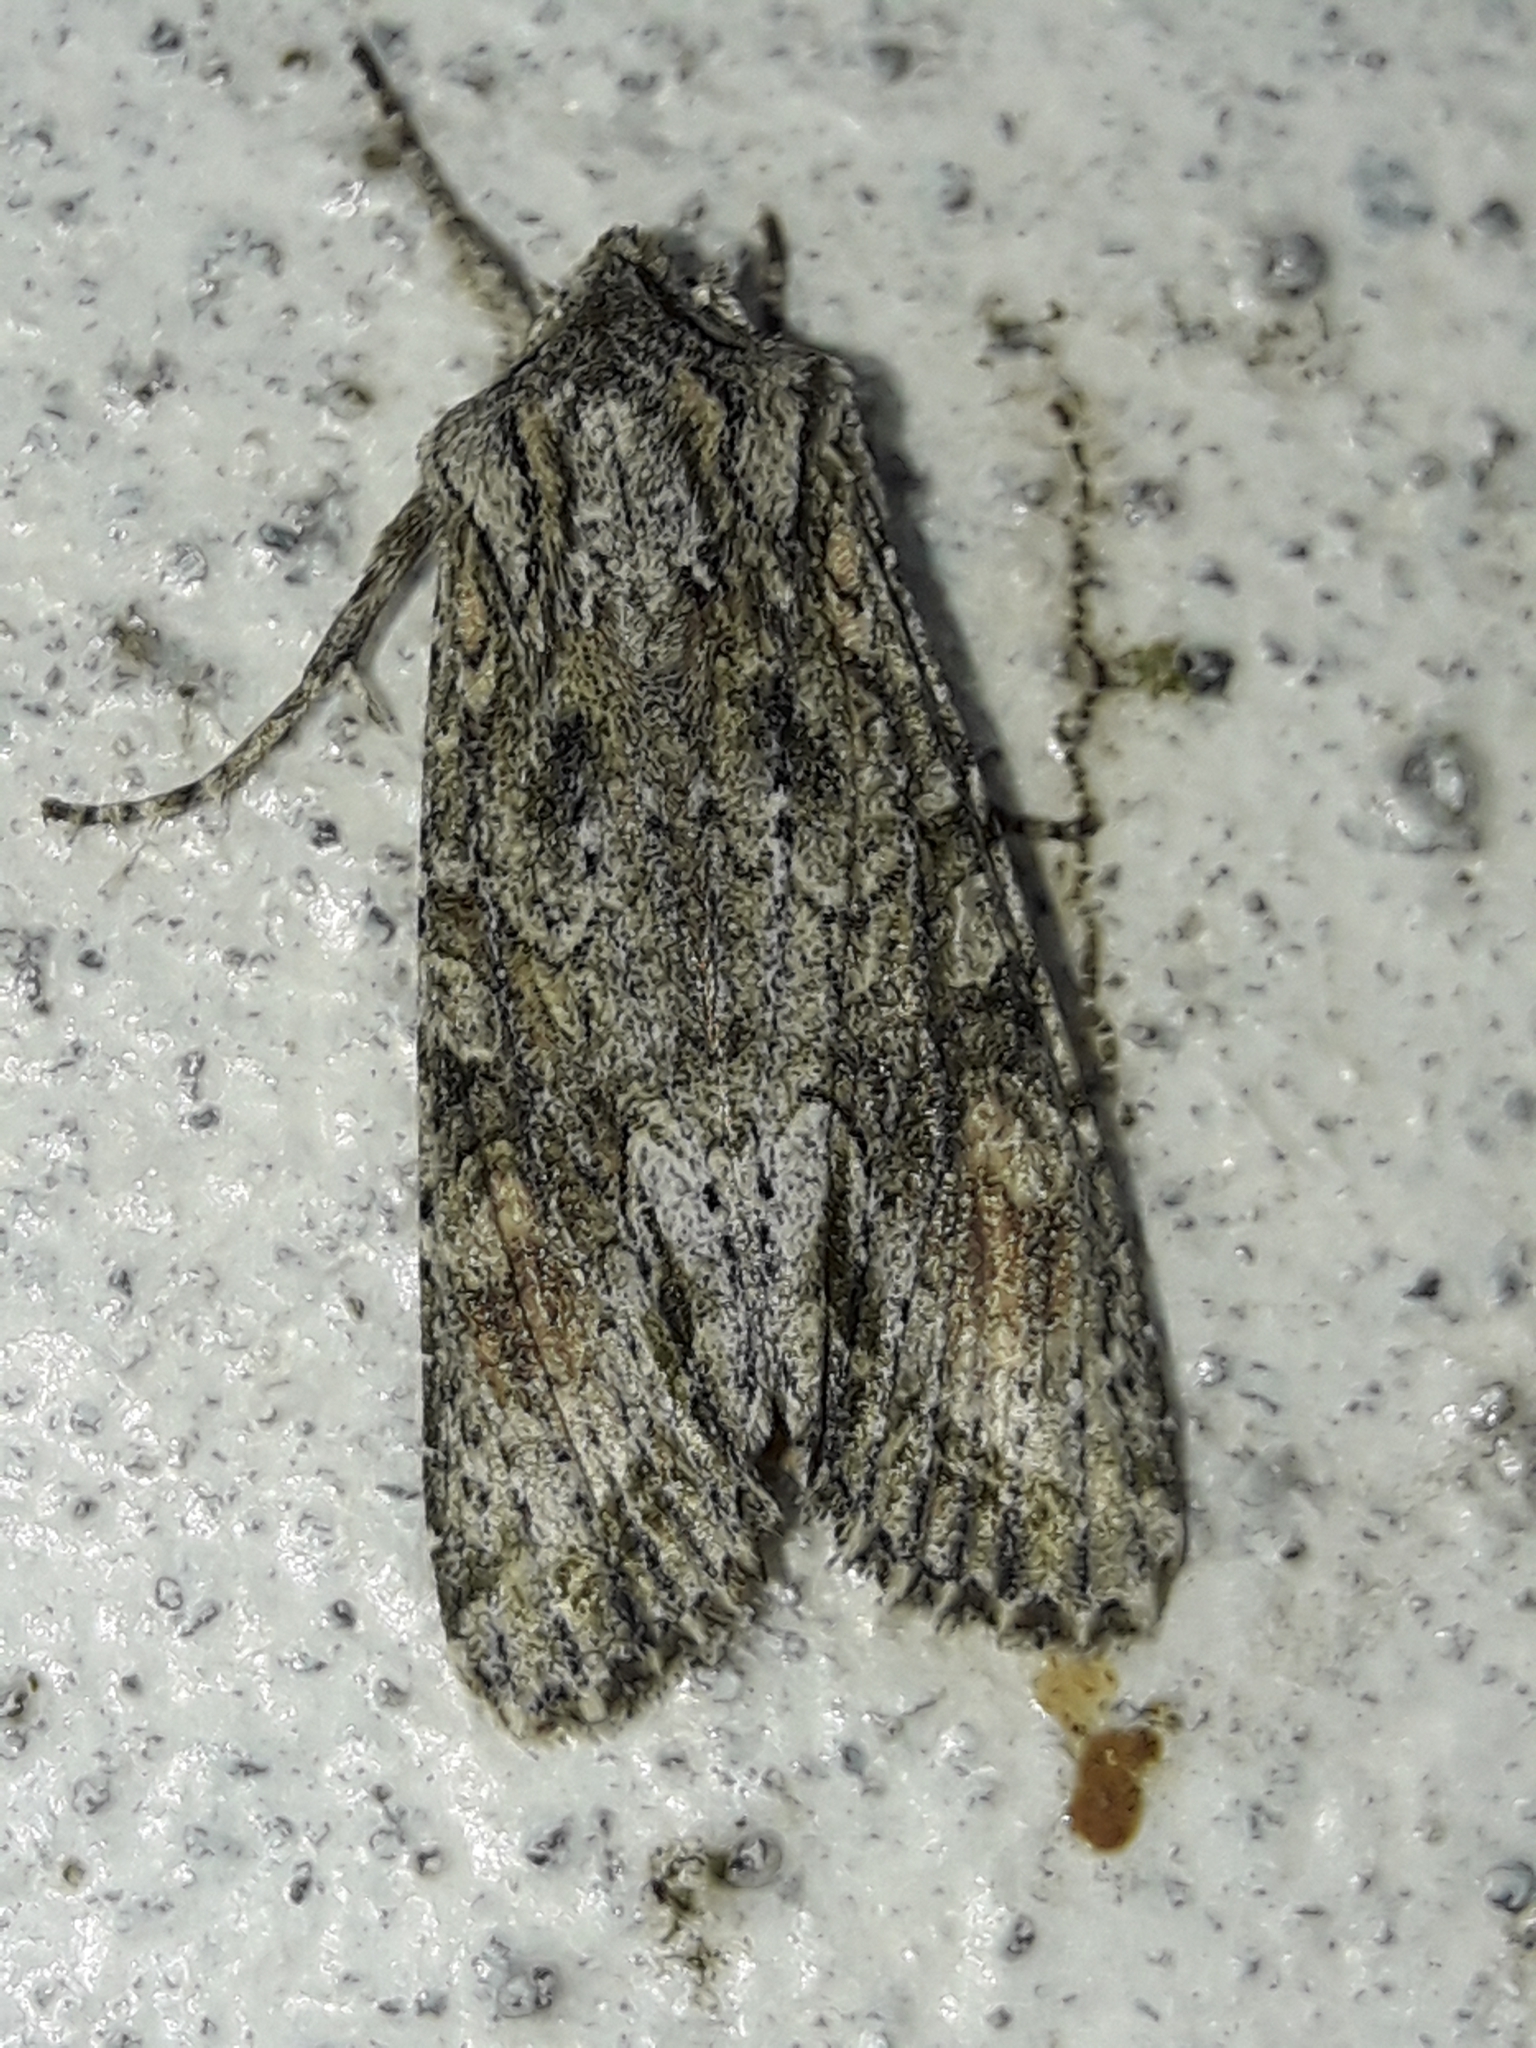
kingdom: Animalia
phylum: Arthropoda
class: Insecta
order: Lepidoptera
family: Noctuidae
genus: Ichneutica
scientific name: Ichneutica mutans
